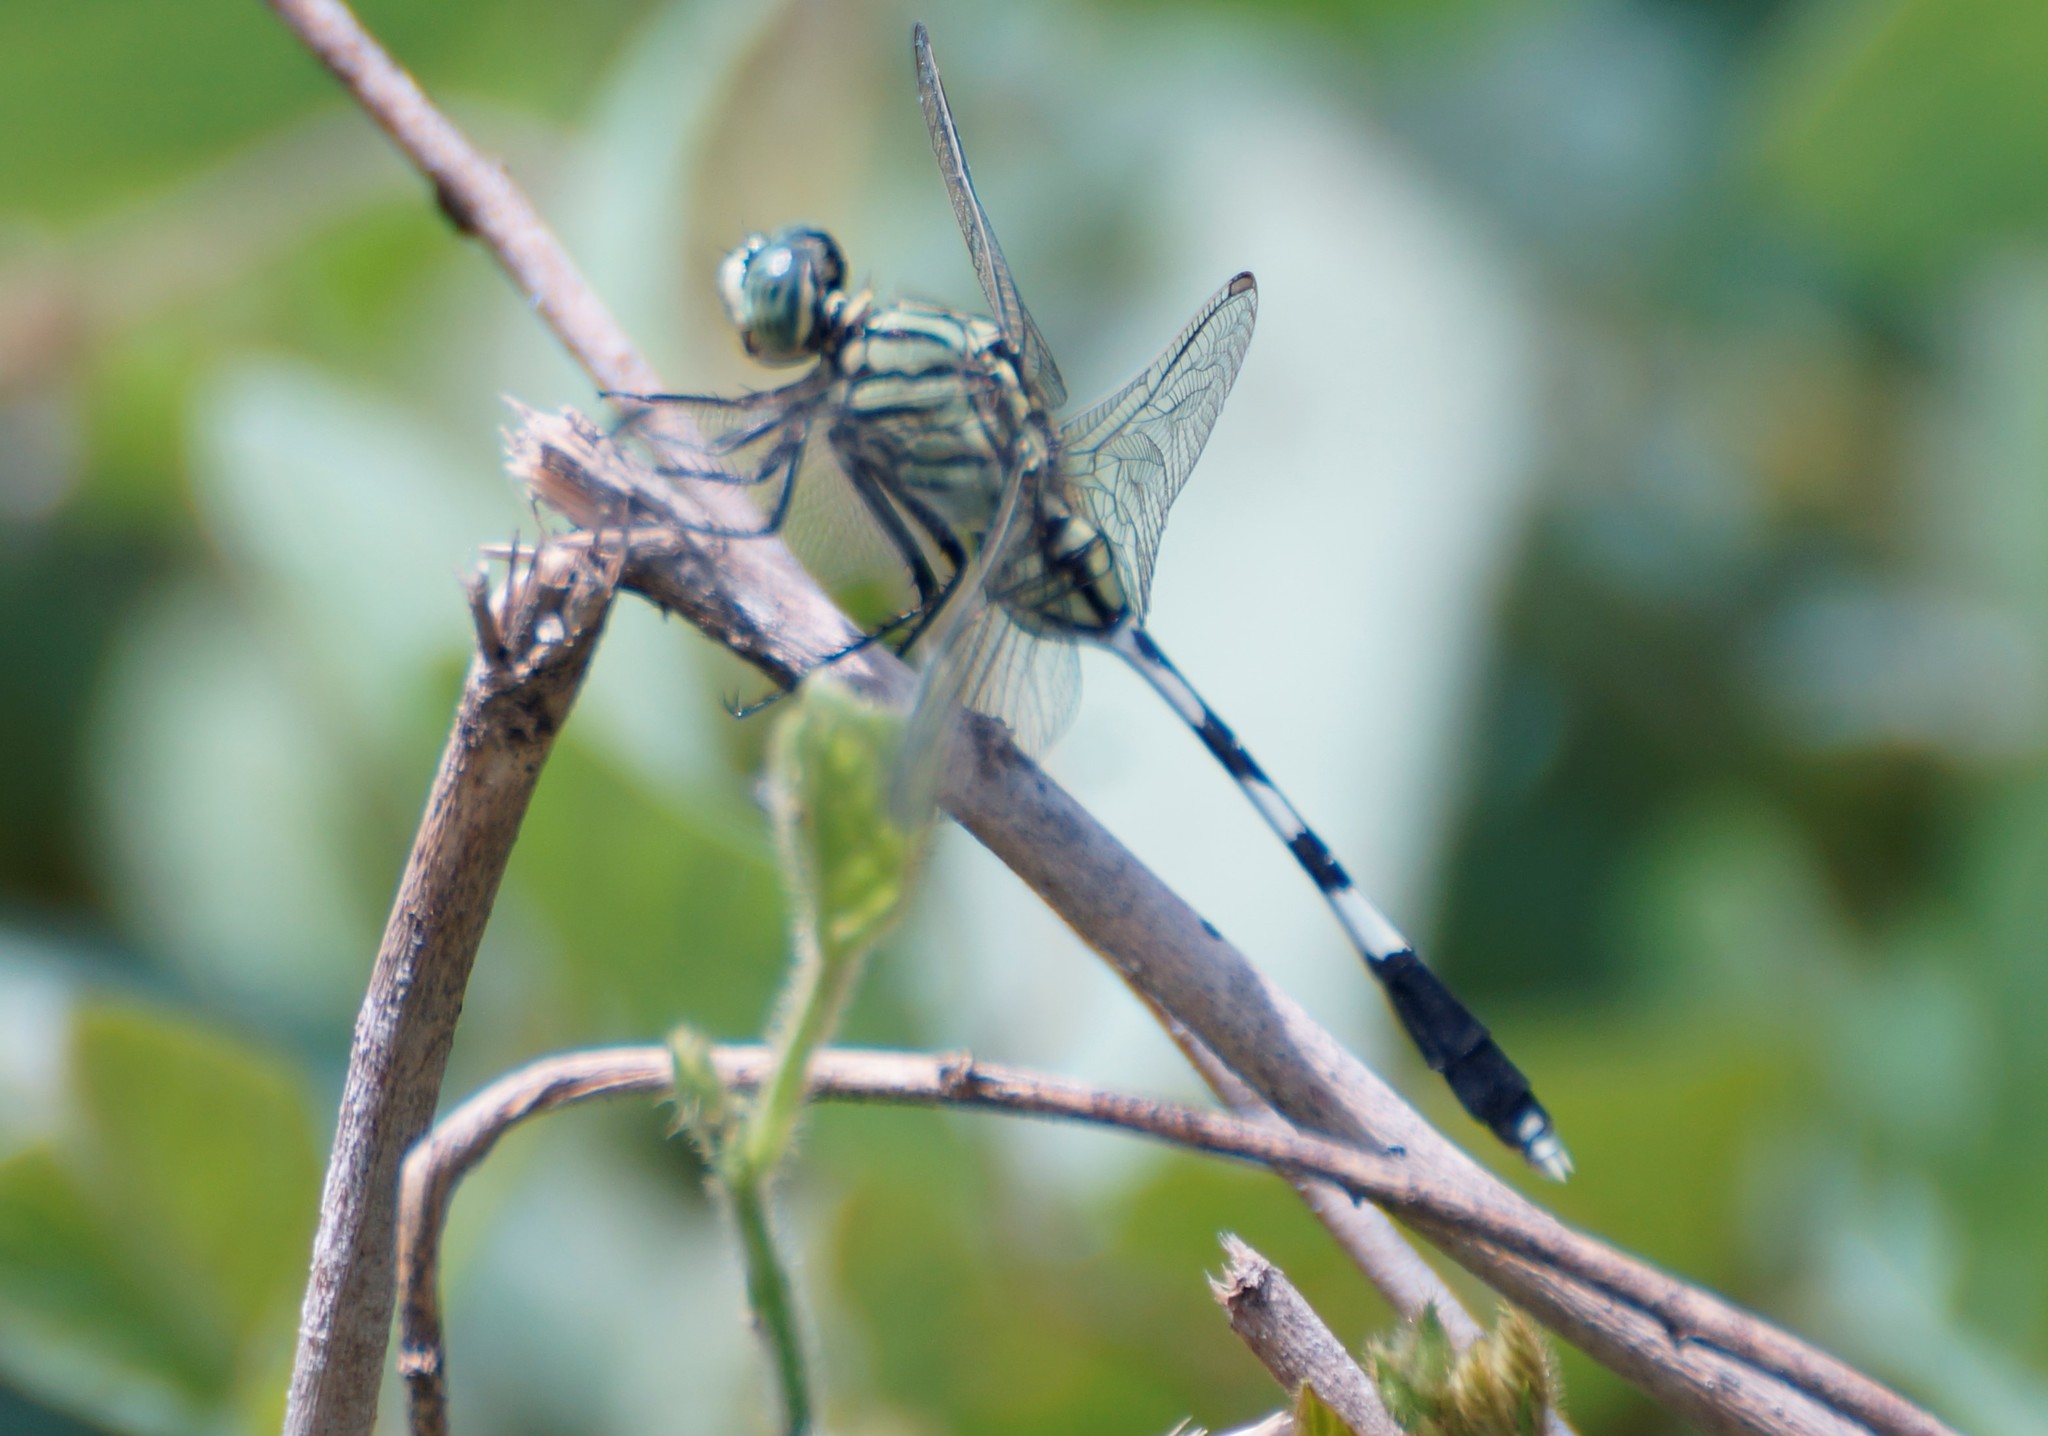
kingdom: Animalia
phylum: Arthropoda
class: Insecta
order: Odonata
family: Libellulidae
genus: Orthetrum
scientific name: Orthetrum sabina
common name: Slender skimmer
